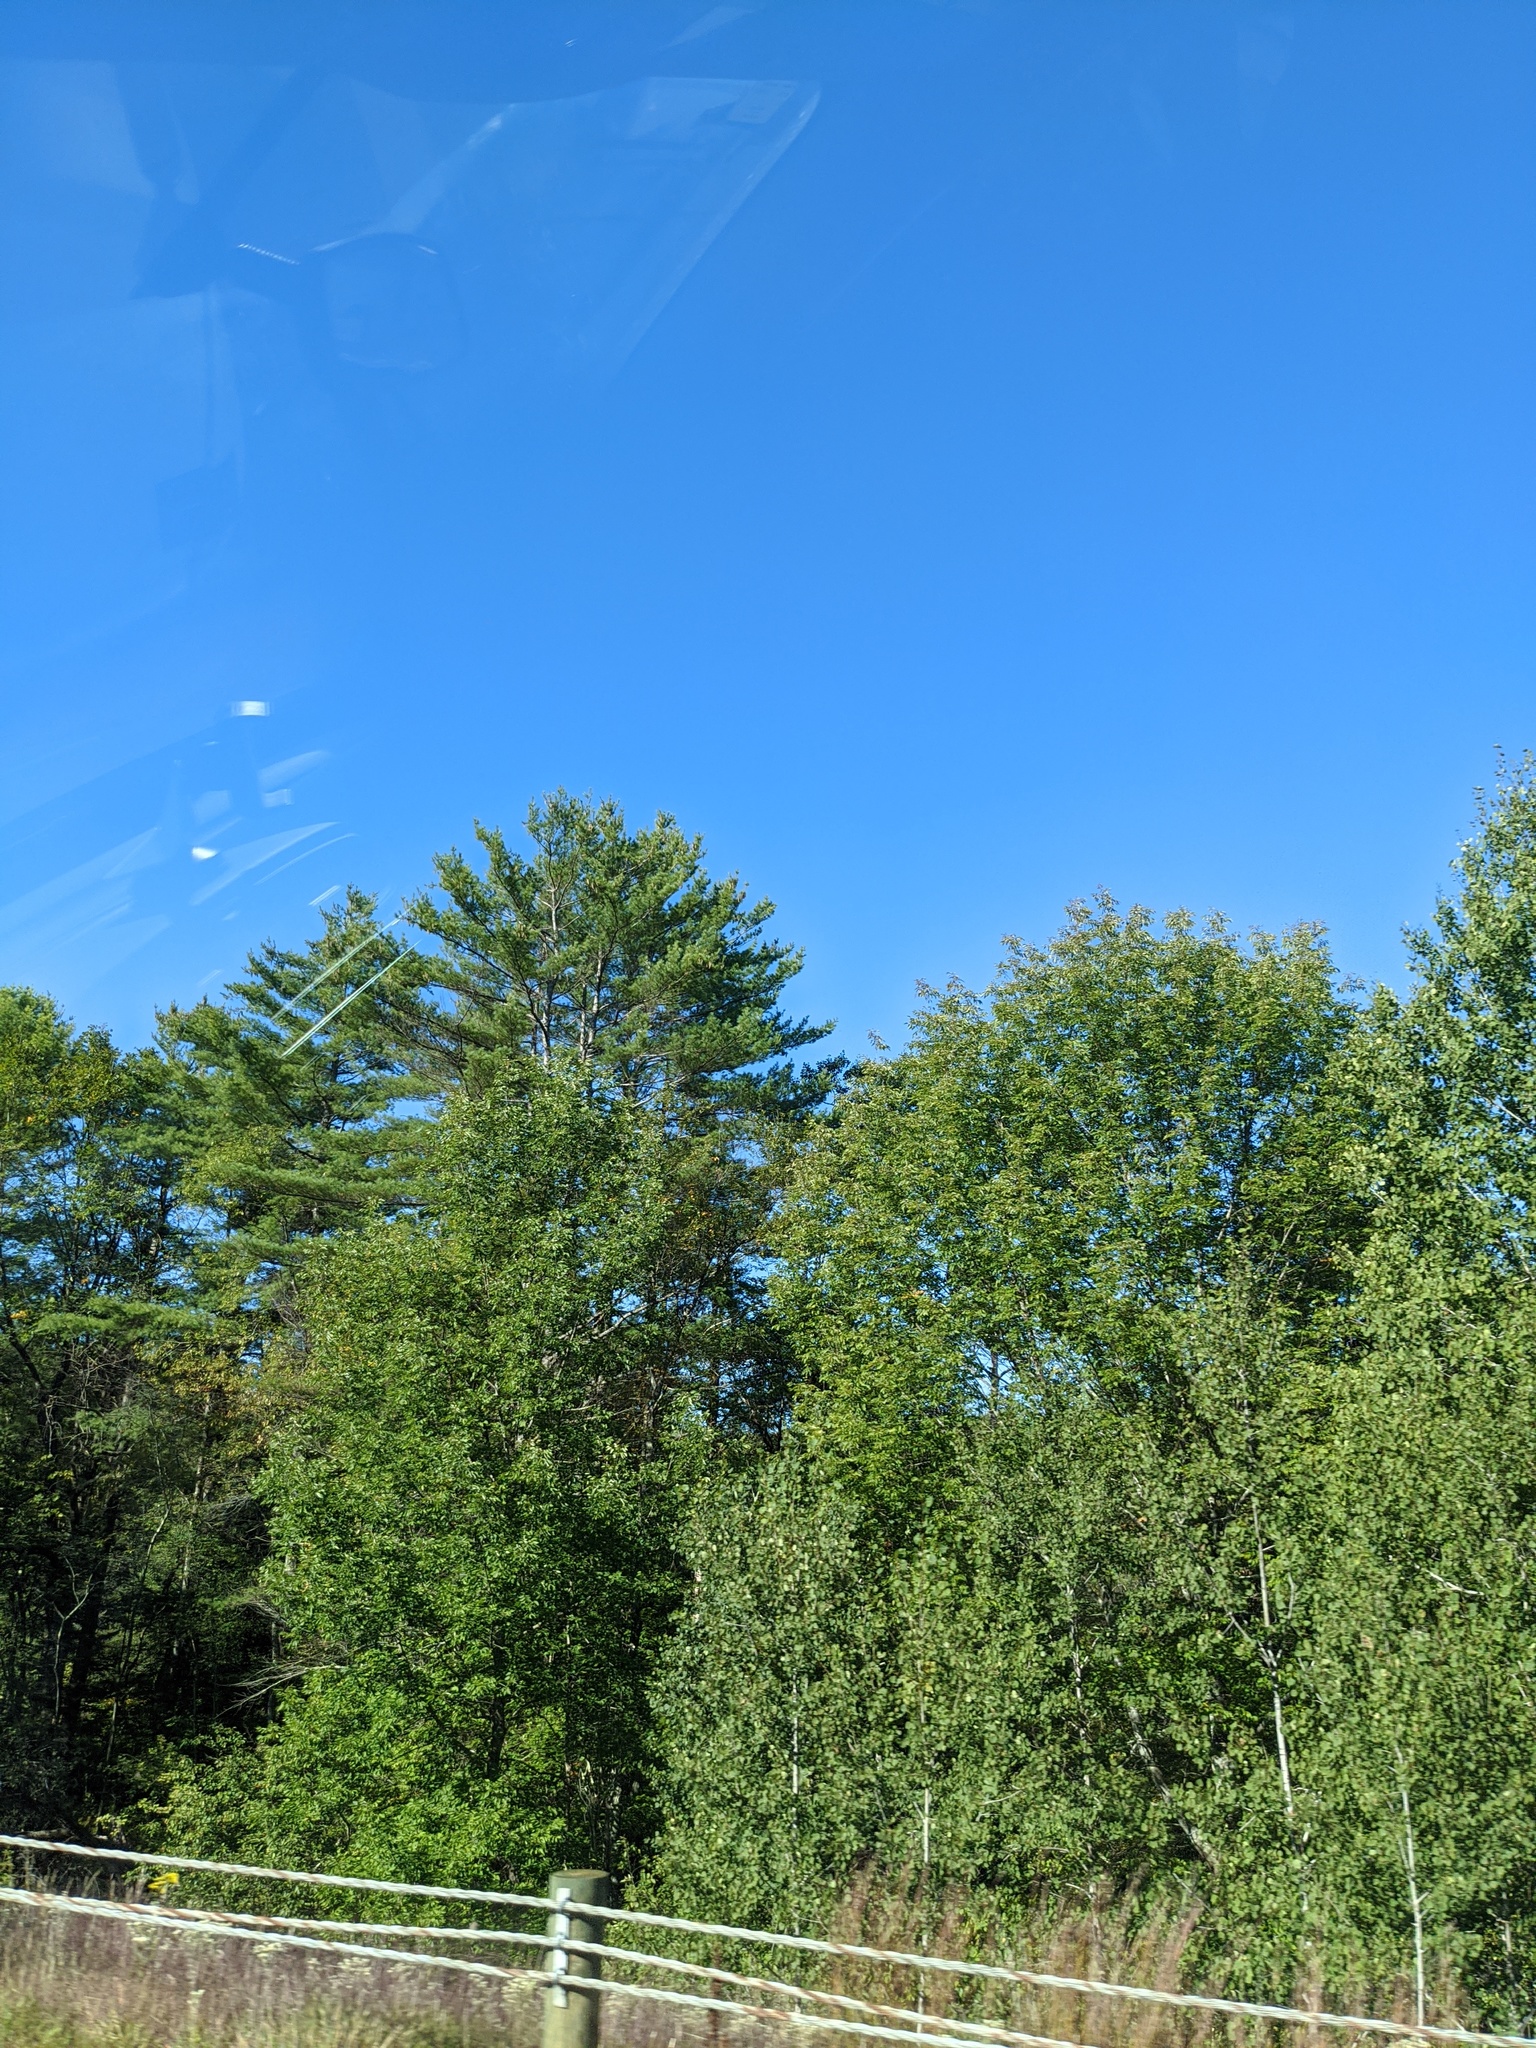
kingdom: Plantae
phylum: Tracheophyta
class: Pinopsida
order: Pinales
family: Pinaceae
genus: Pinus
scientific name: Pinus strobus
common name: Weymouth pine
